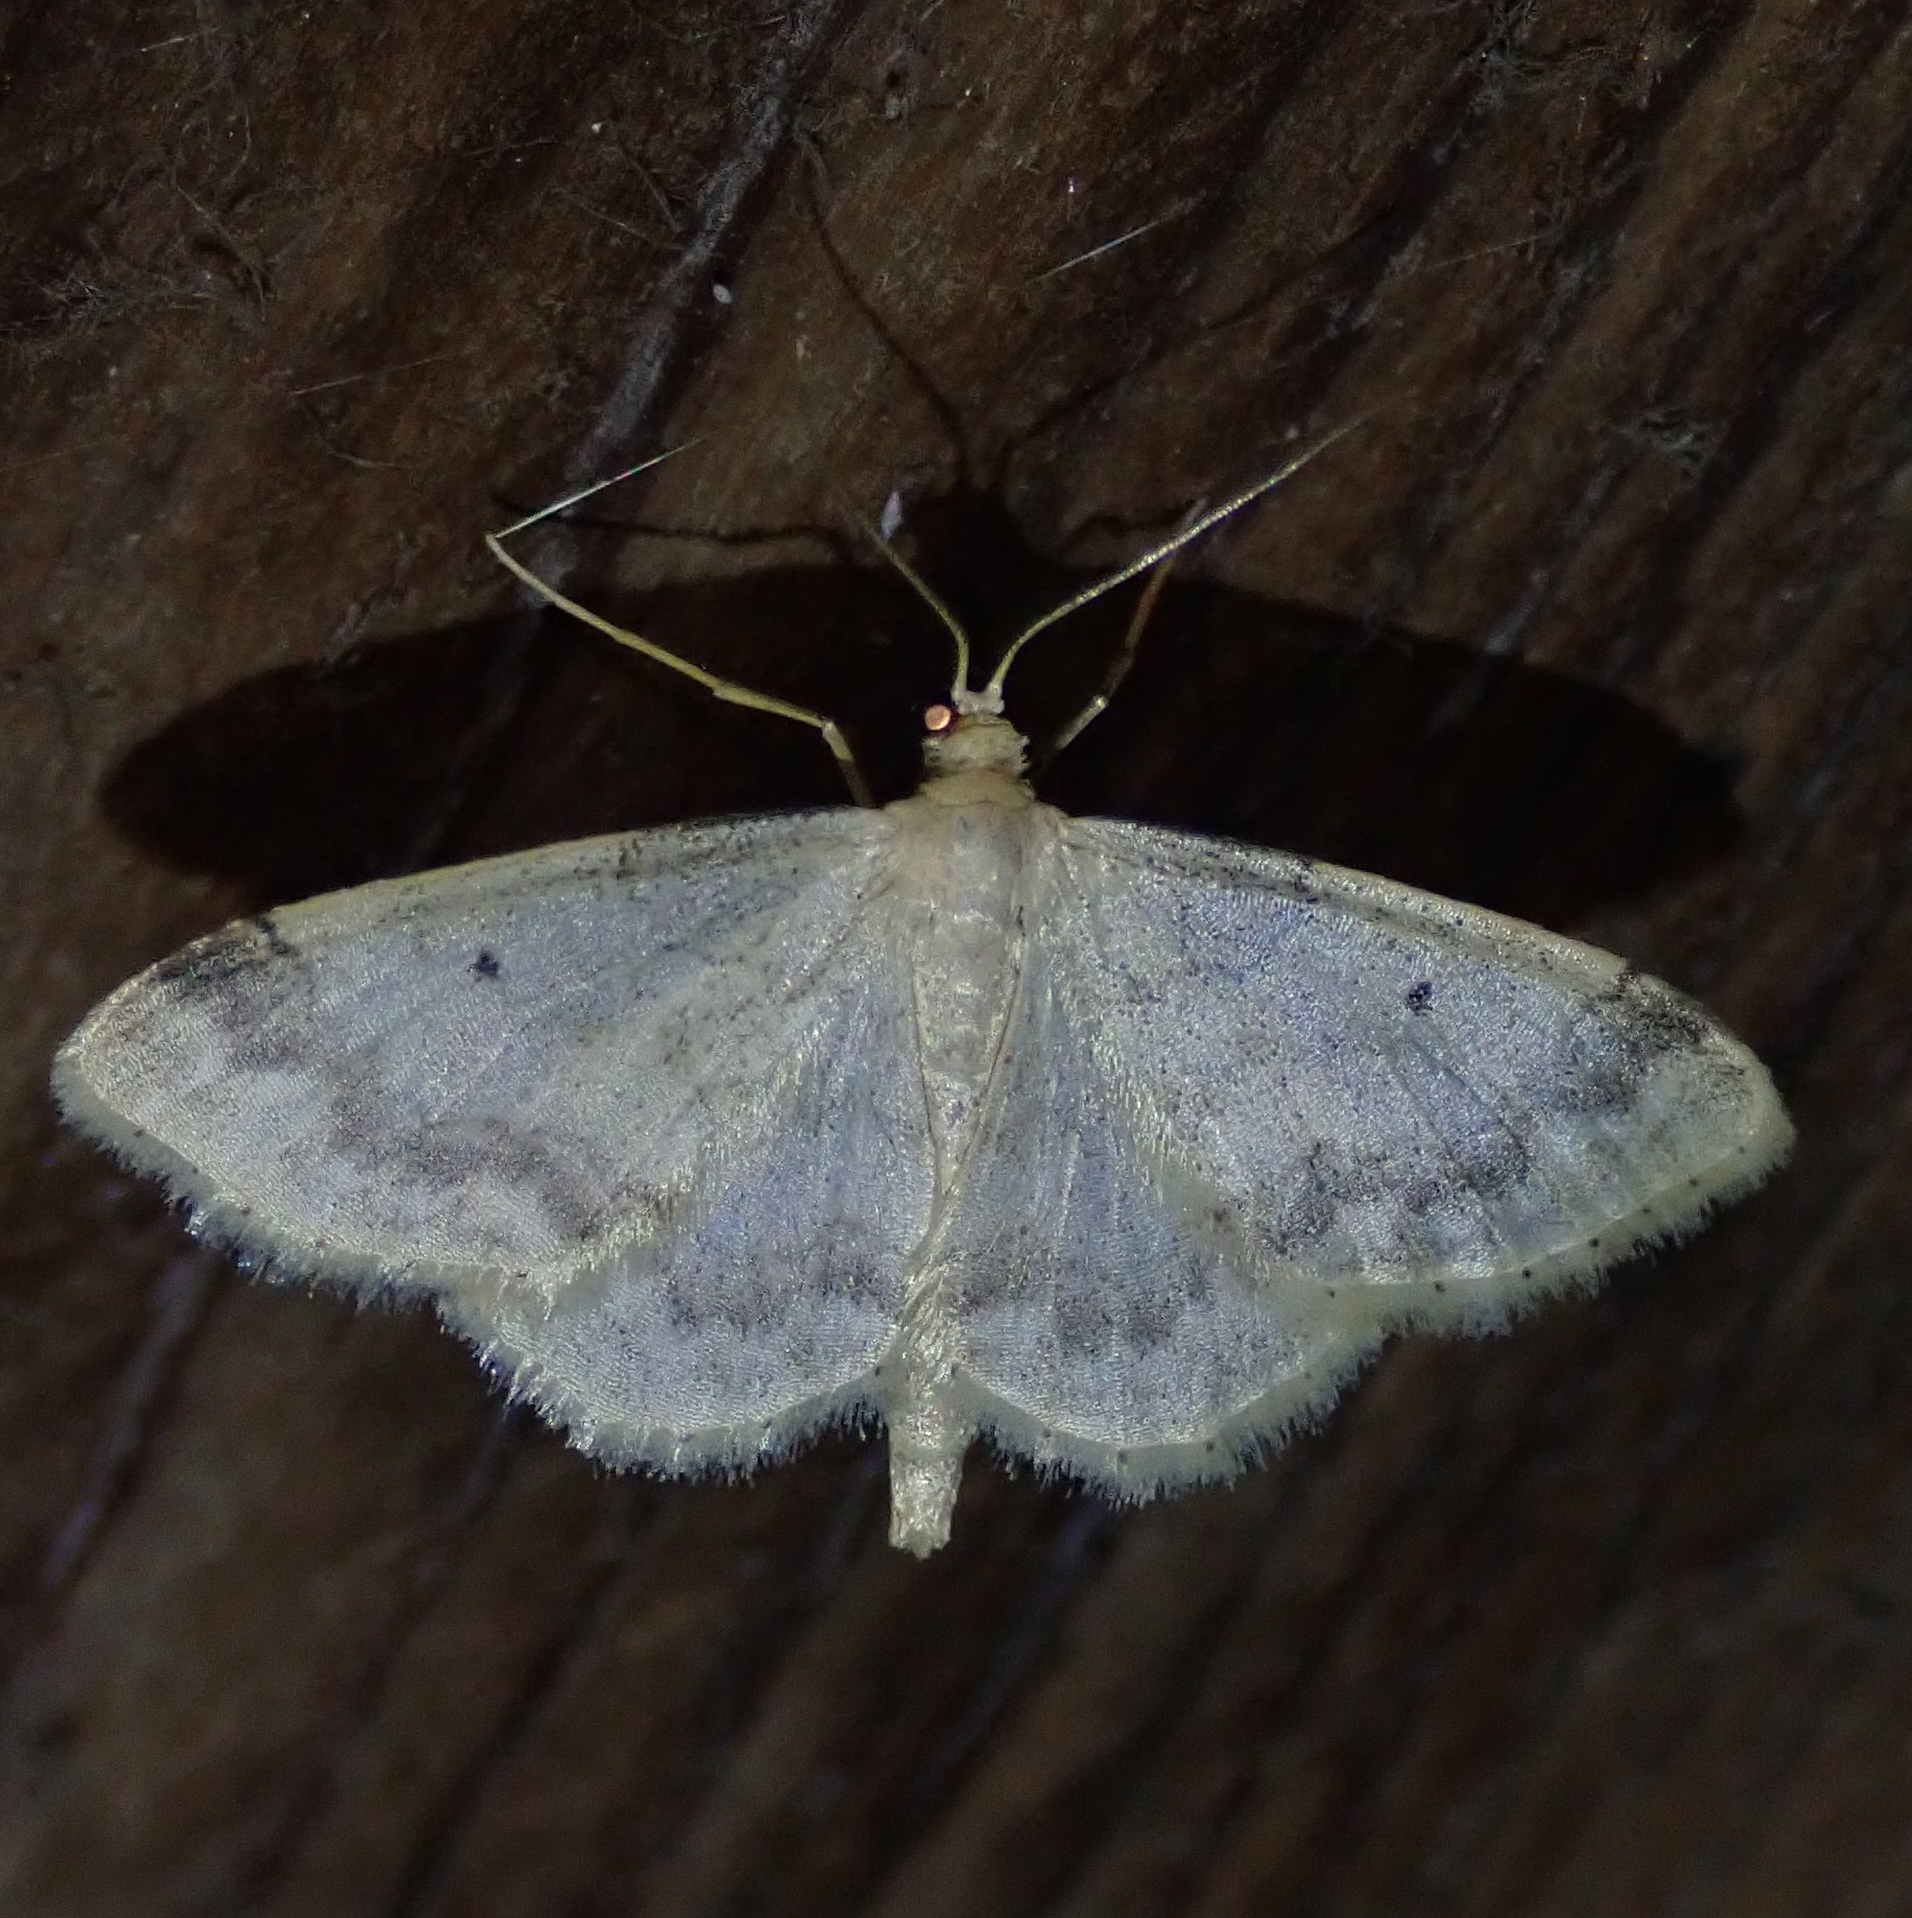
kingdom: Animalia
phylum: Arthropoda
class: Insecta
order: Lepidoptera
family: Geometridae
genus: Idaea
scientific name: Idaea biselata
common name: Small fan-footed wave
